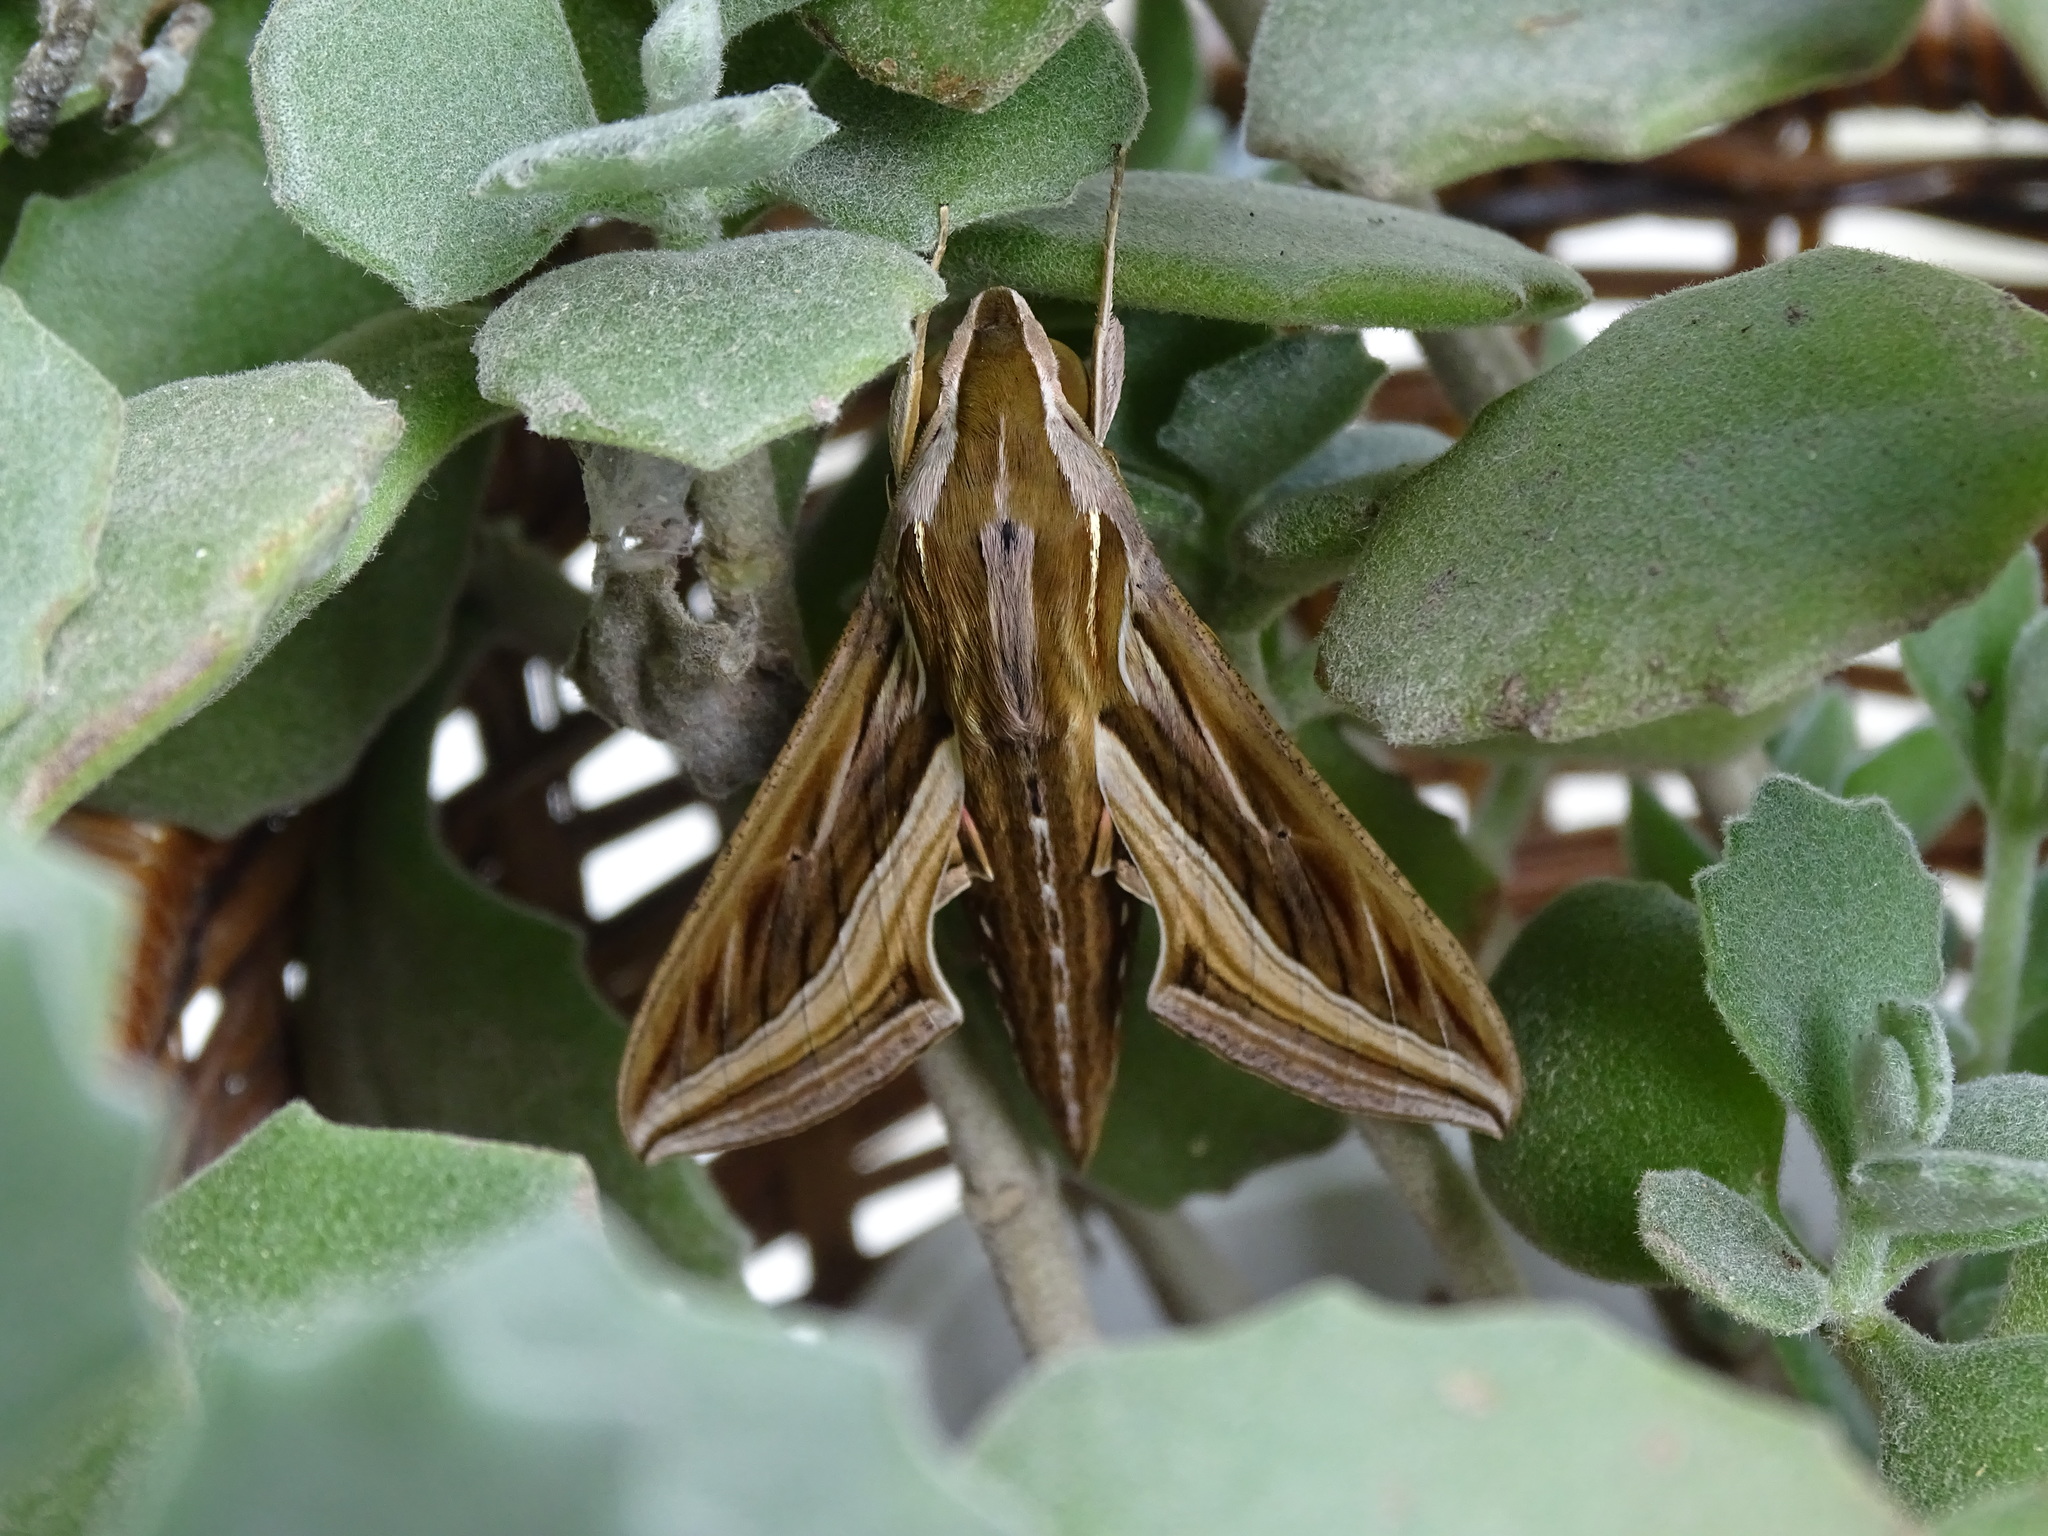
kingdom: Animalia
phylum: Arthropoda
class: Insecta
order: Lepidoptera
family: Sphingidae
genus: Hippotion
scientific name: Hippotion celerio
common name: Silver-striped hawk-moth
